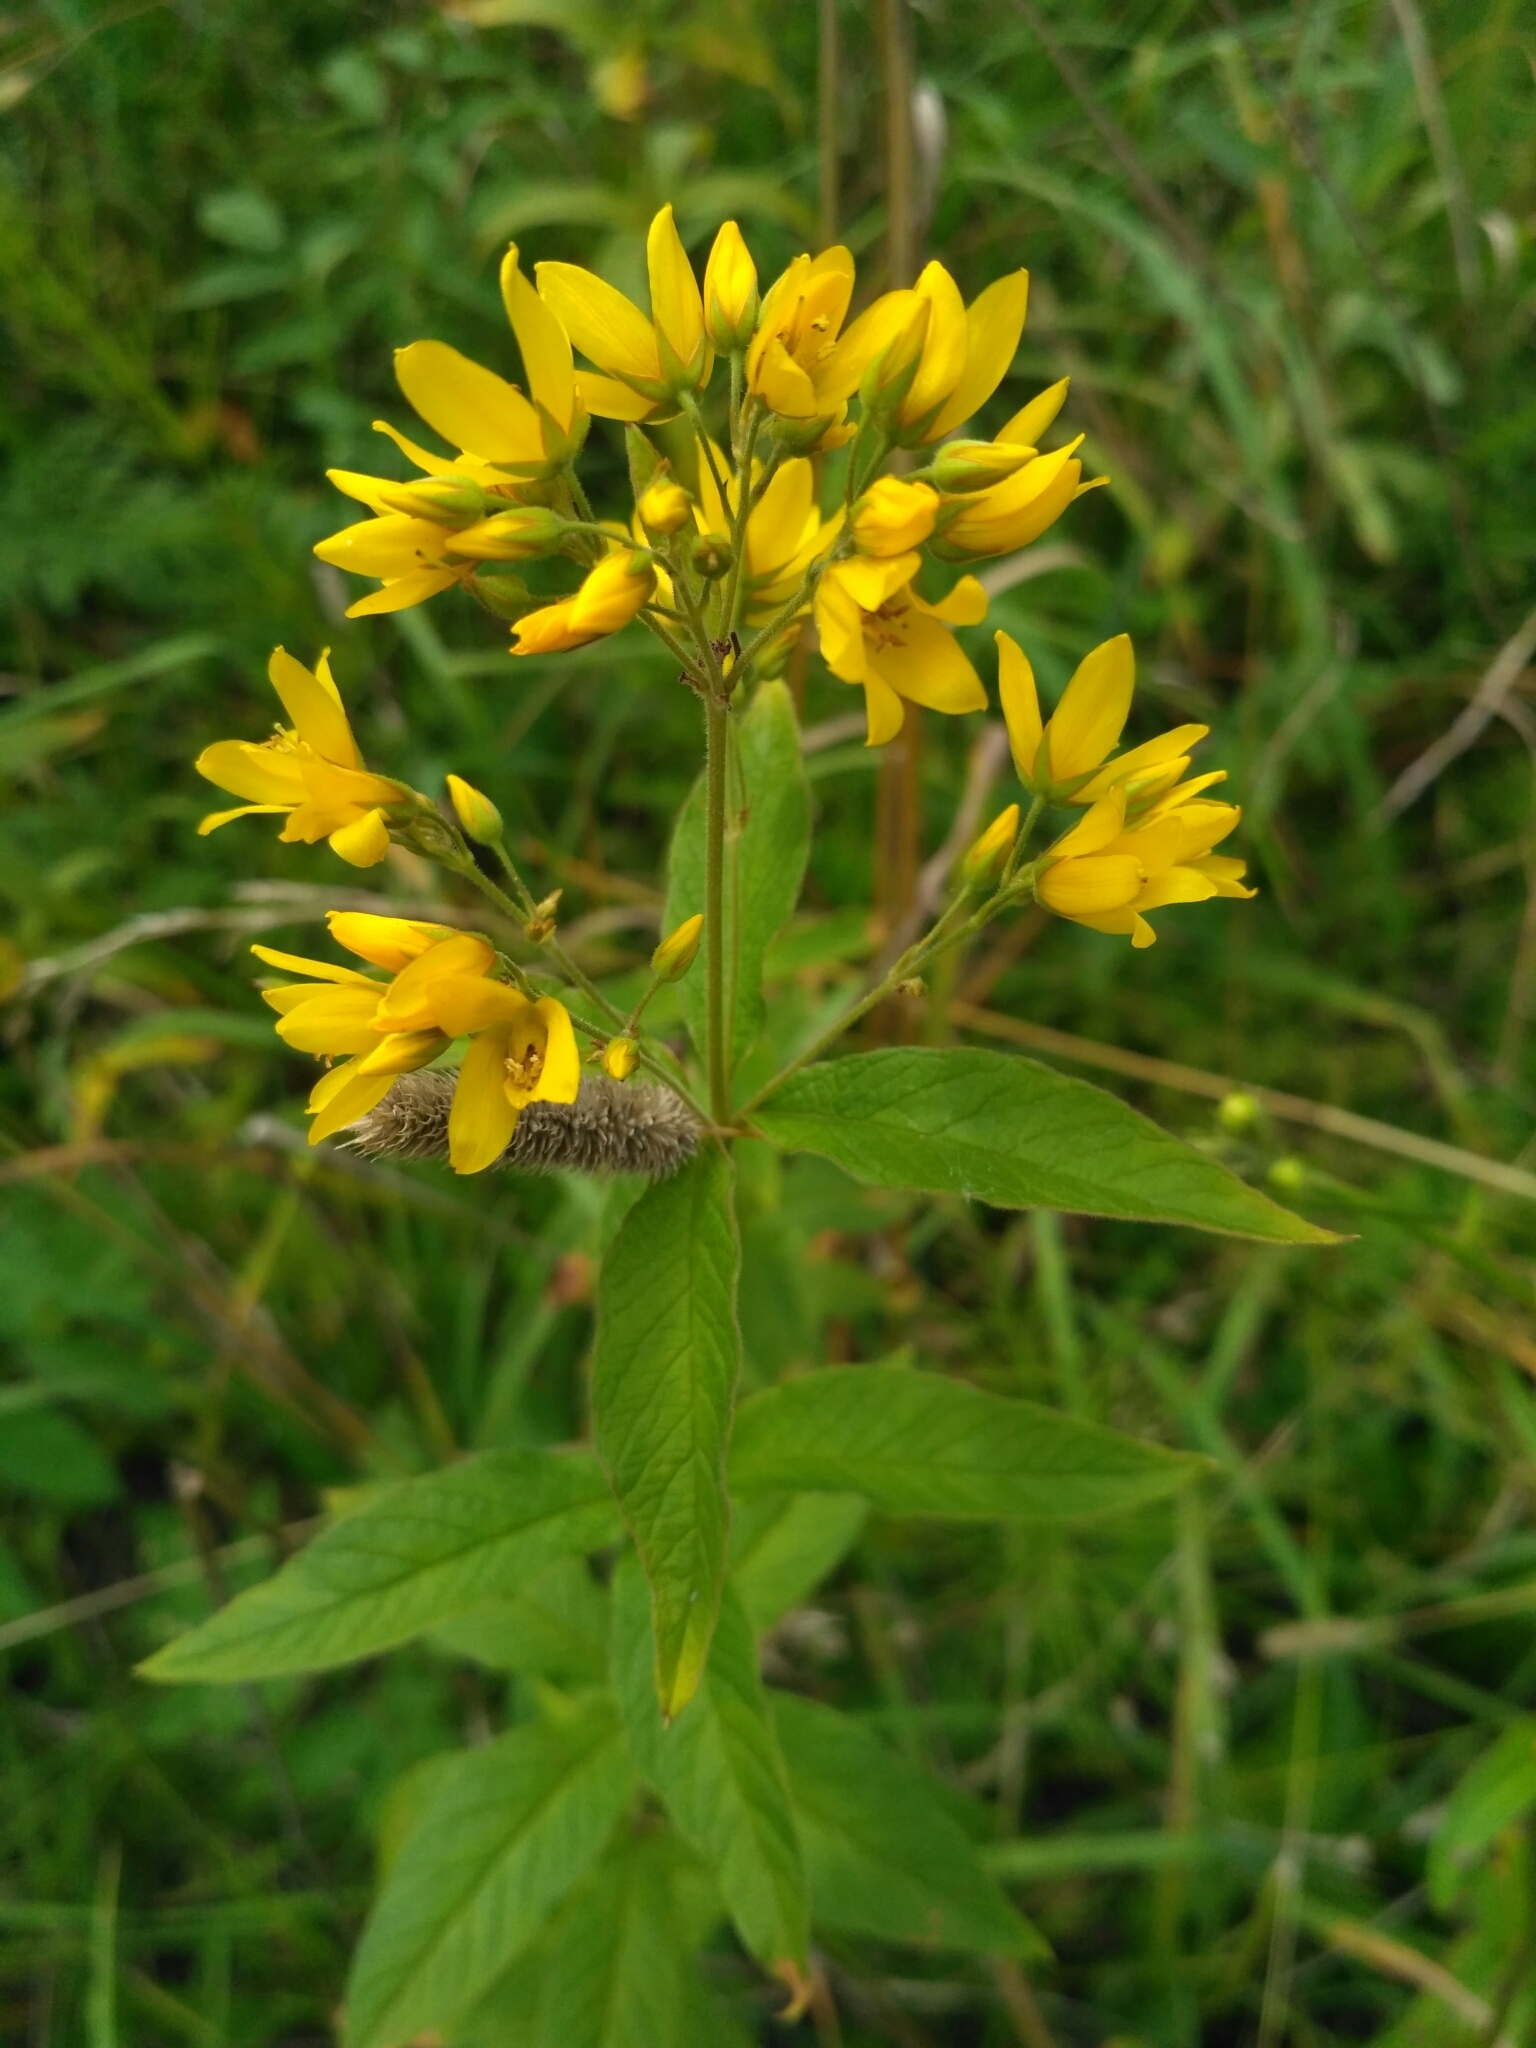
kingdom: Plantae
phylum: Tracheophyta
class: Magnoliopsida
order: Ericales
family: Primulaceae
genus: Lysimachia
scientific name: Lysimachia vulgaris
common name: Yellow loosestrife
